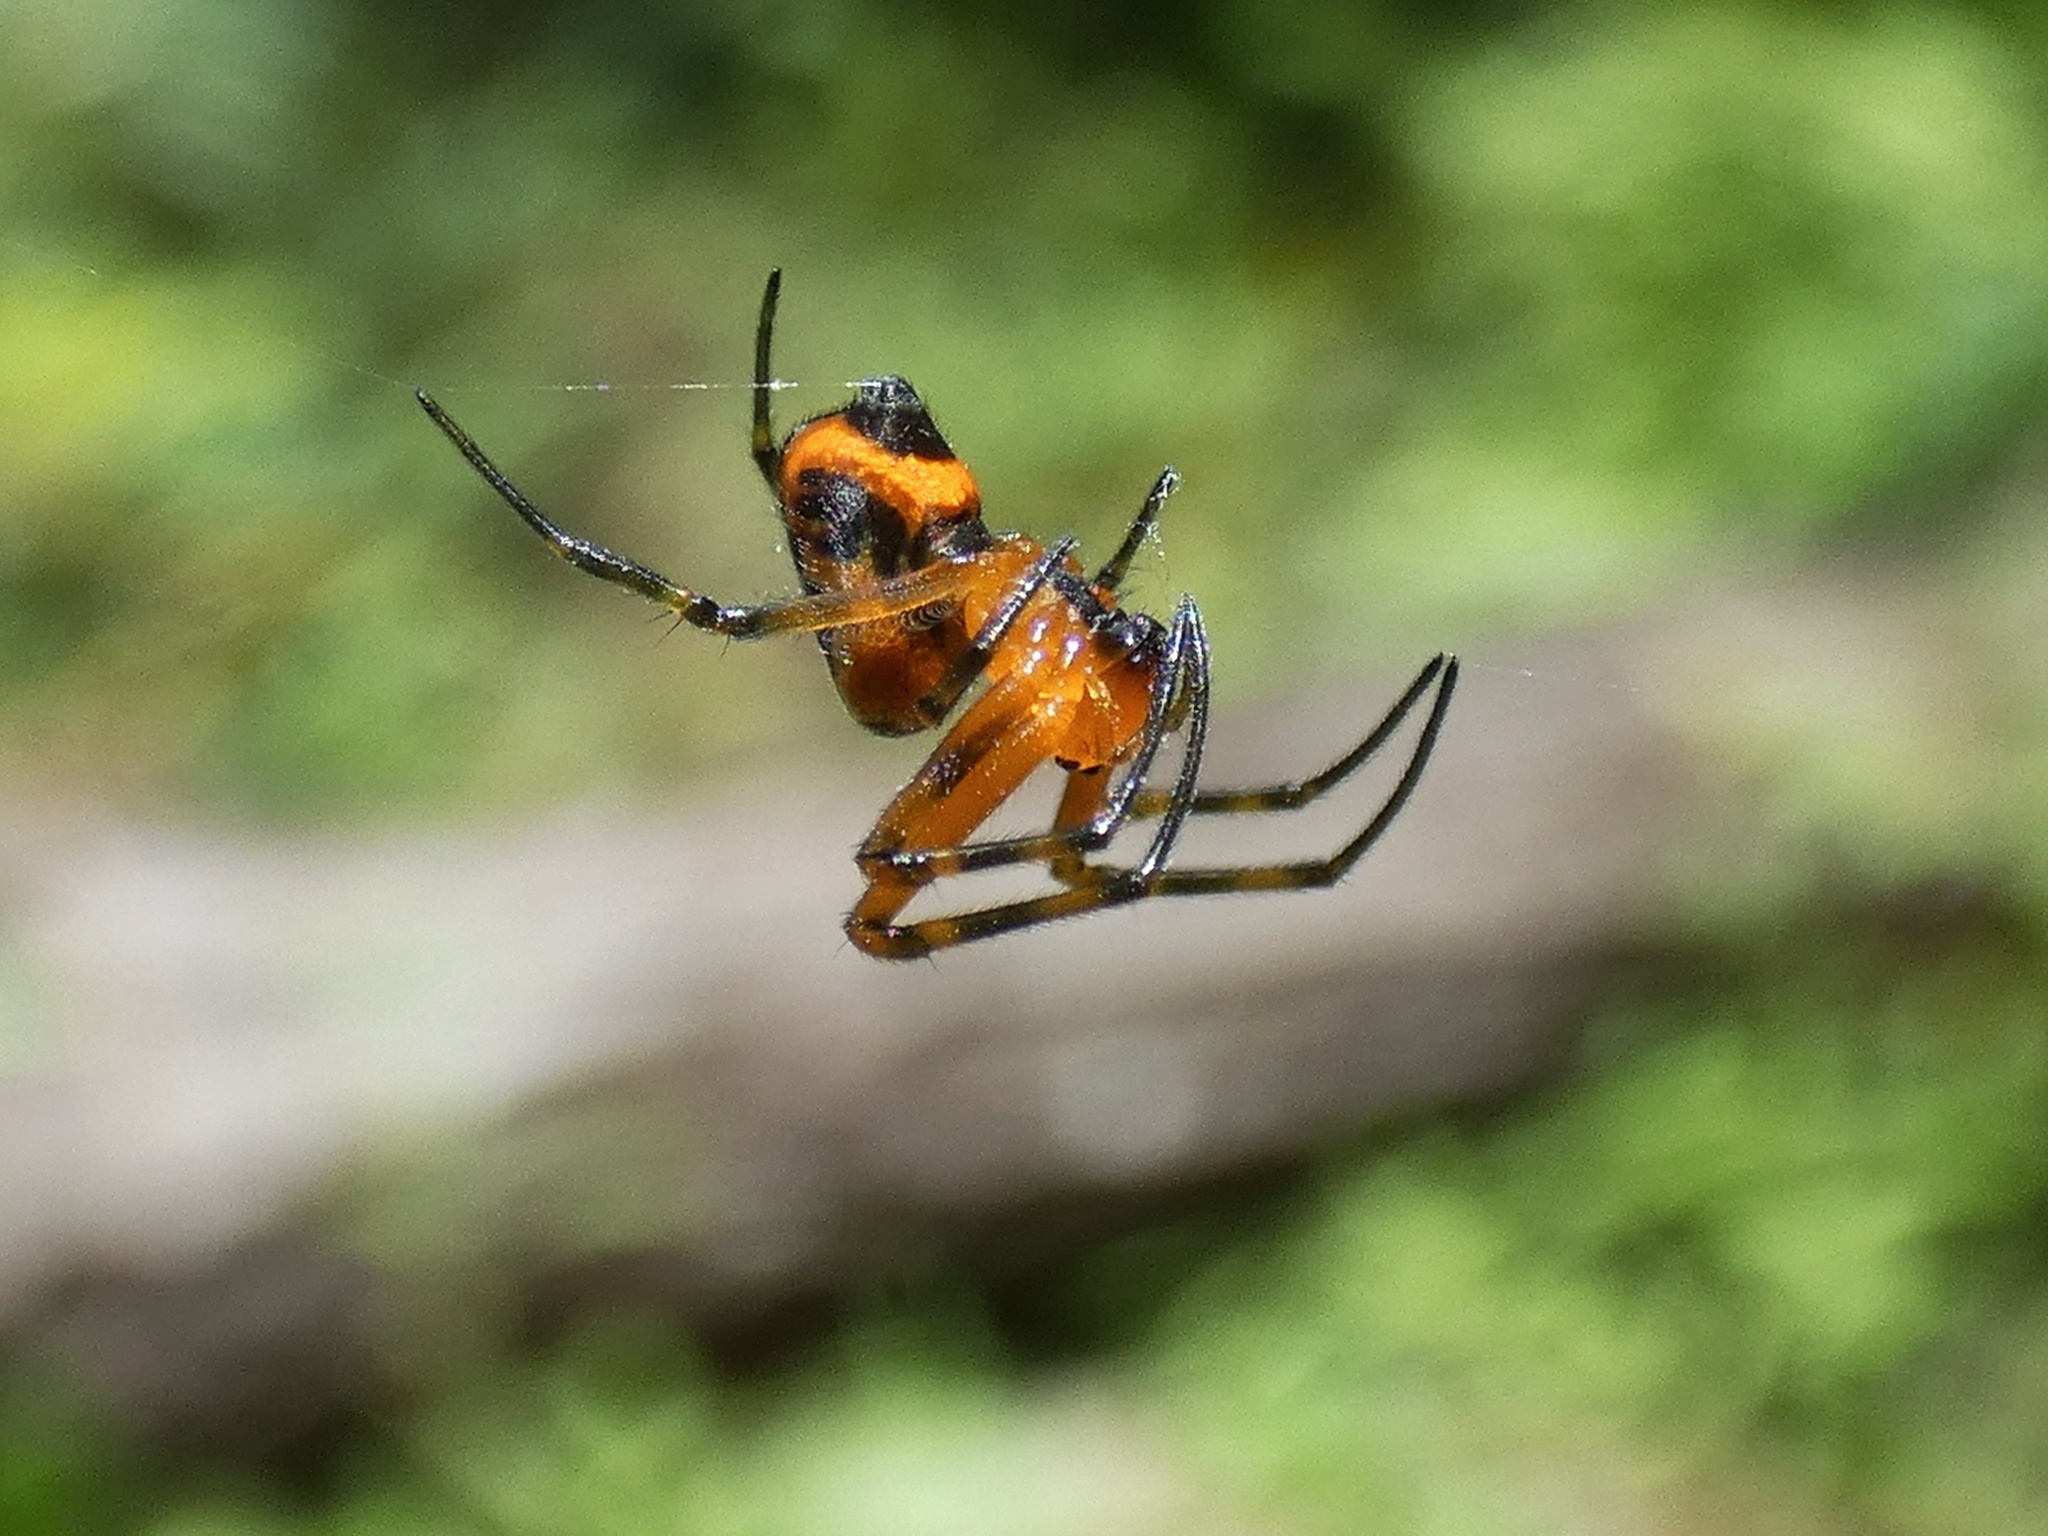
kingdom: Animalia
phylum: Arthropoda
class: Arachnida
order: Araneae
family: Tetragnathidae
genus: Leucauge
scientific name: Leucauge fastigata
